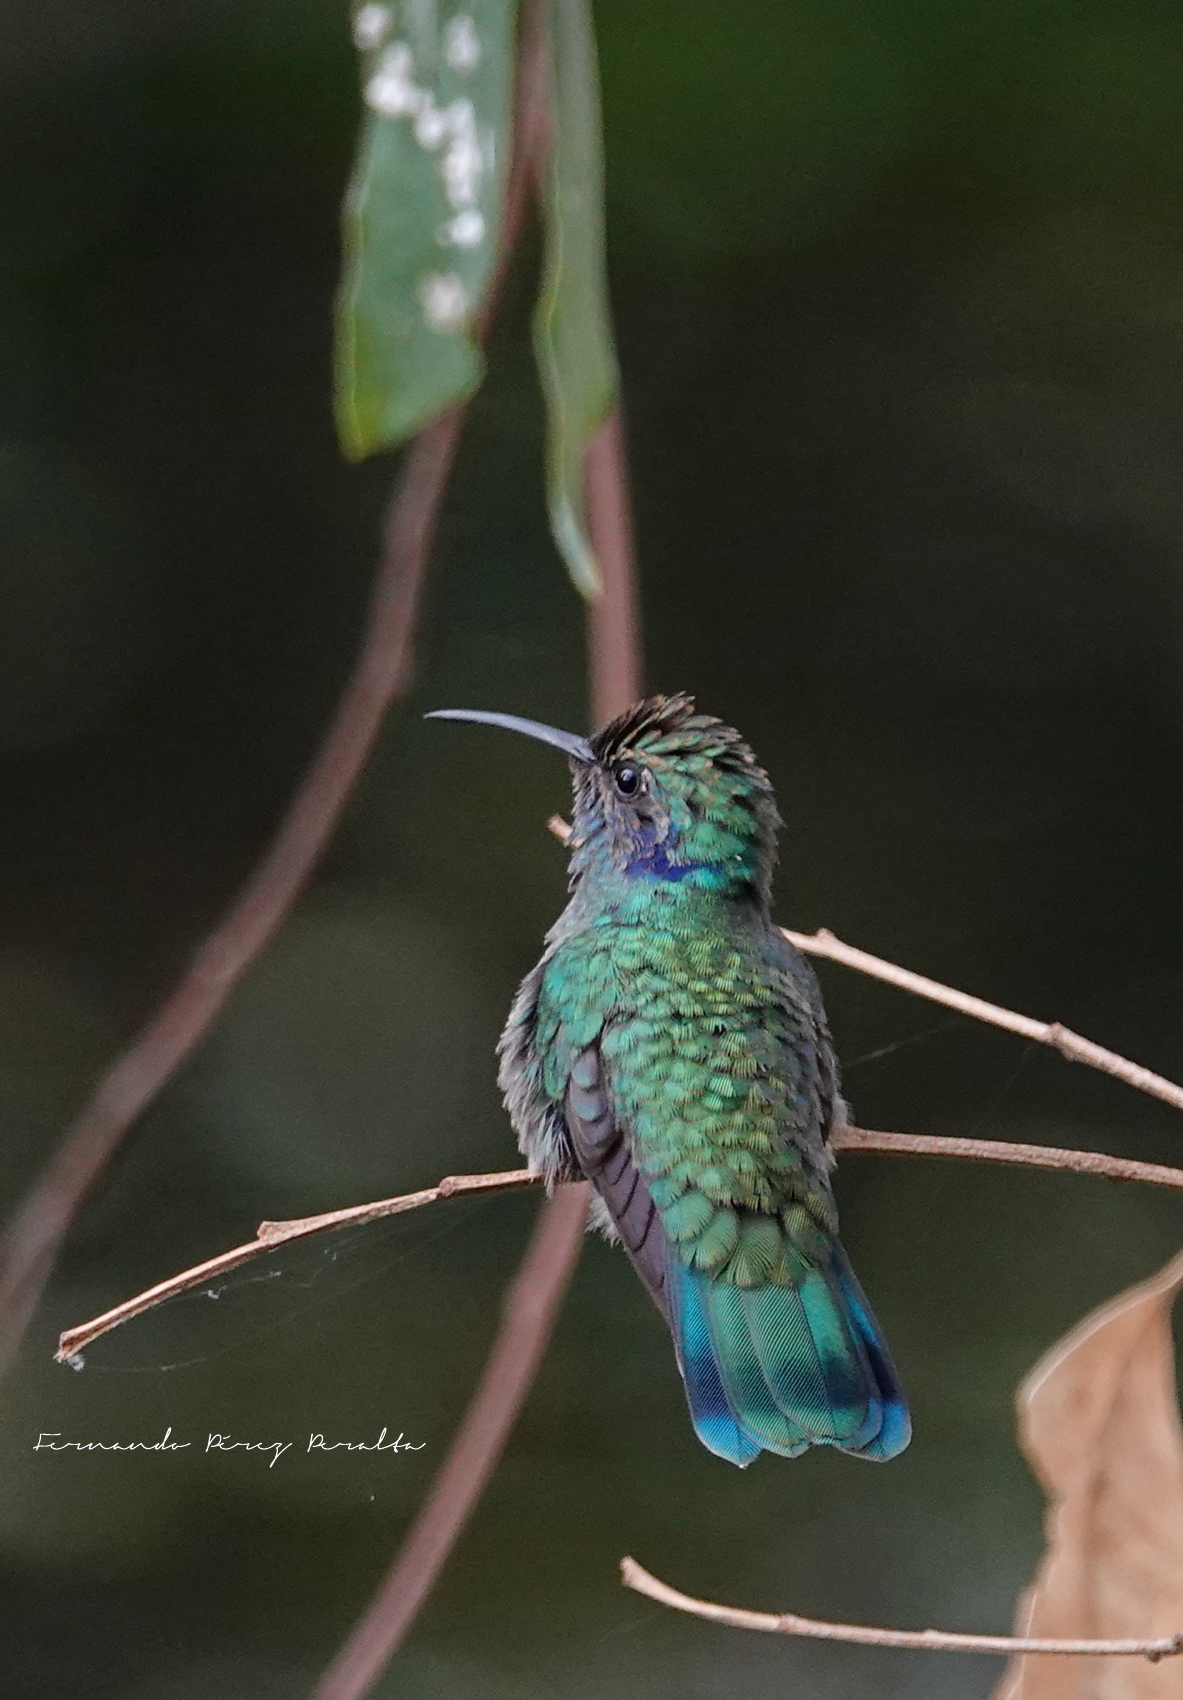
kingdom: Animalia
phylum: Chordata
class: Aves
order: Apodiformes
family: Trochilidae
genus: Colibri
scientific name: Colibri thalassinus
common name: Green violetear
